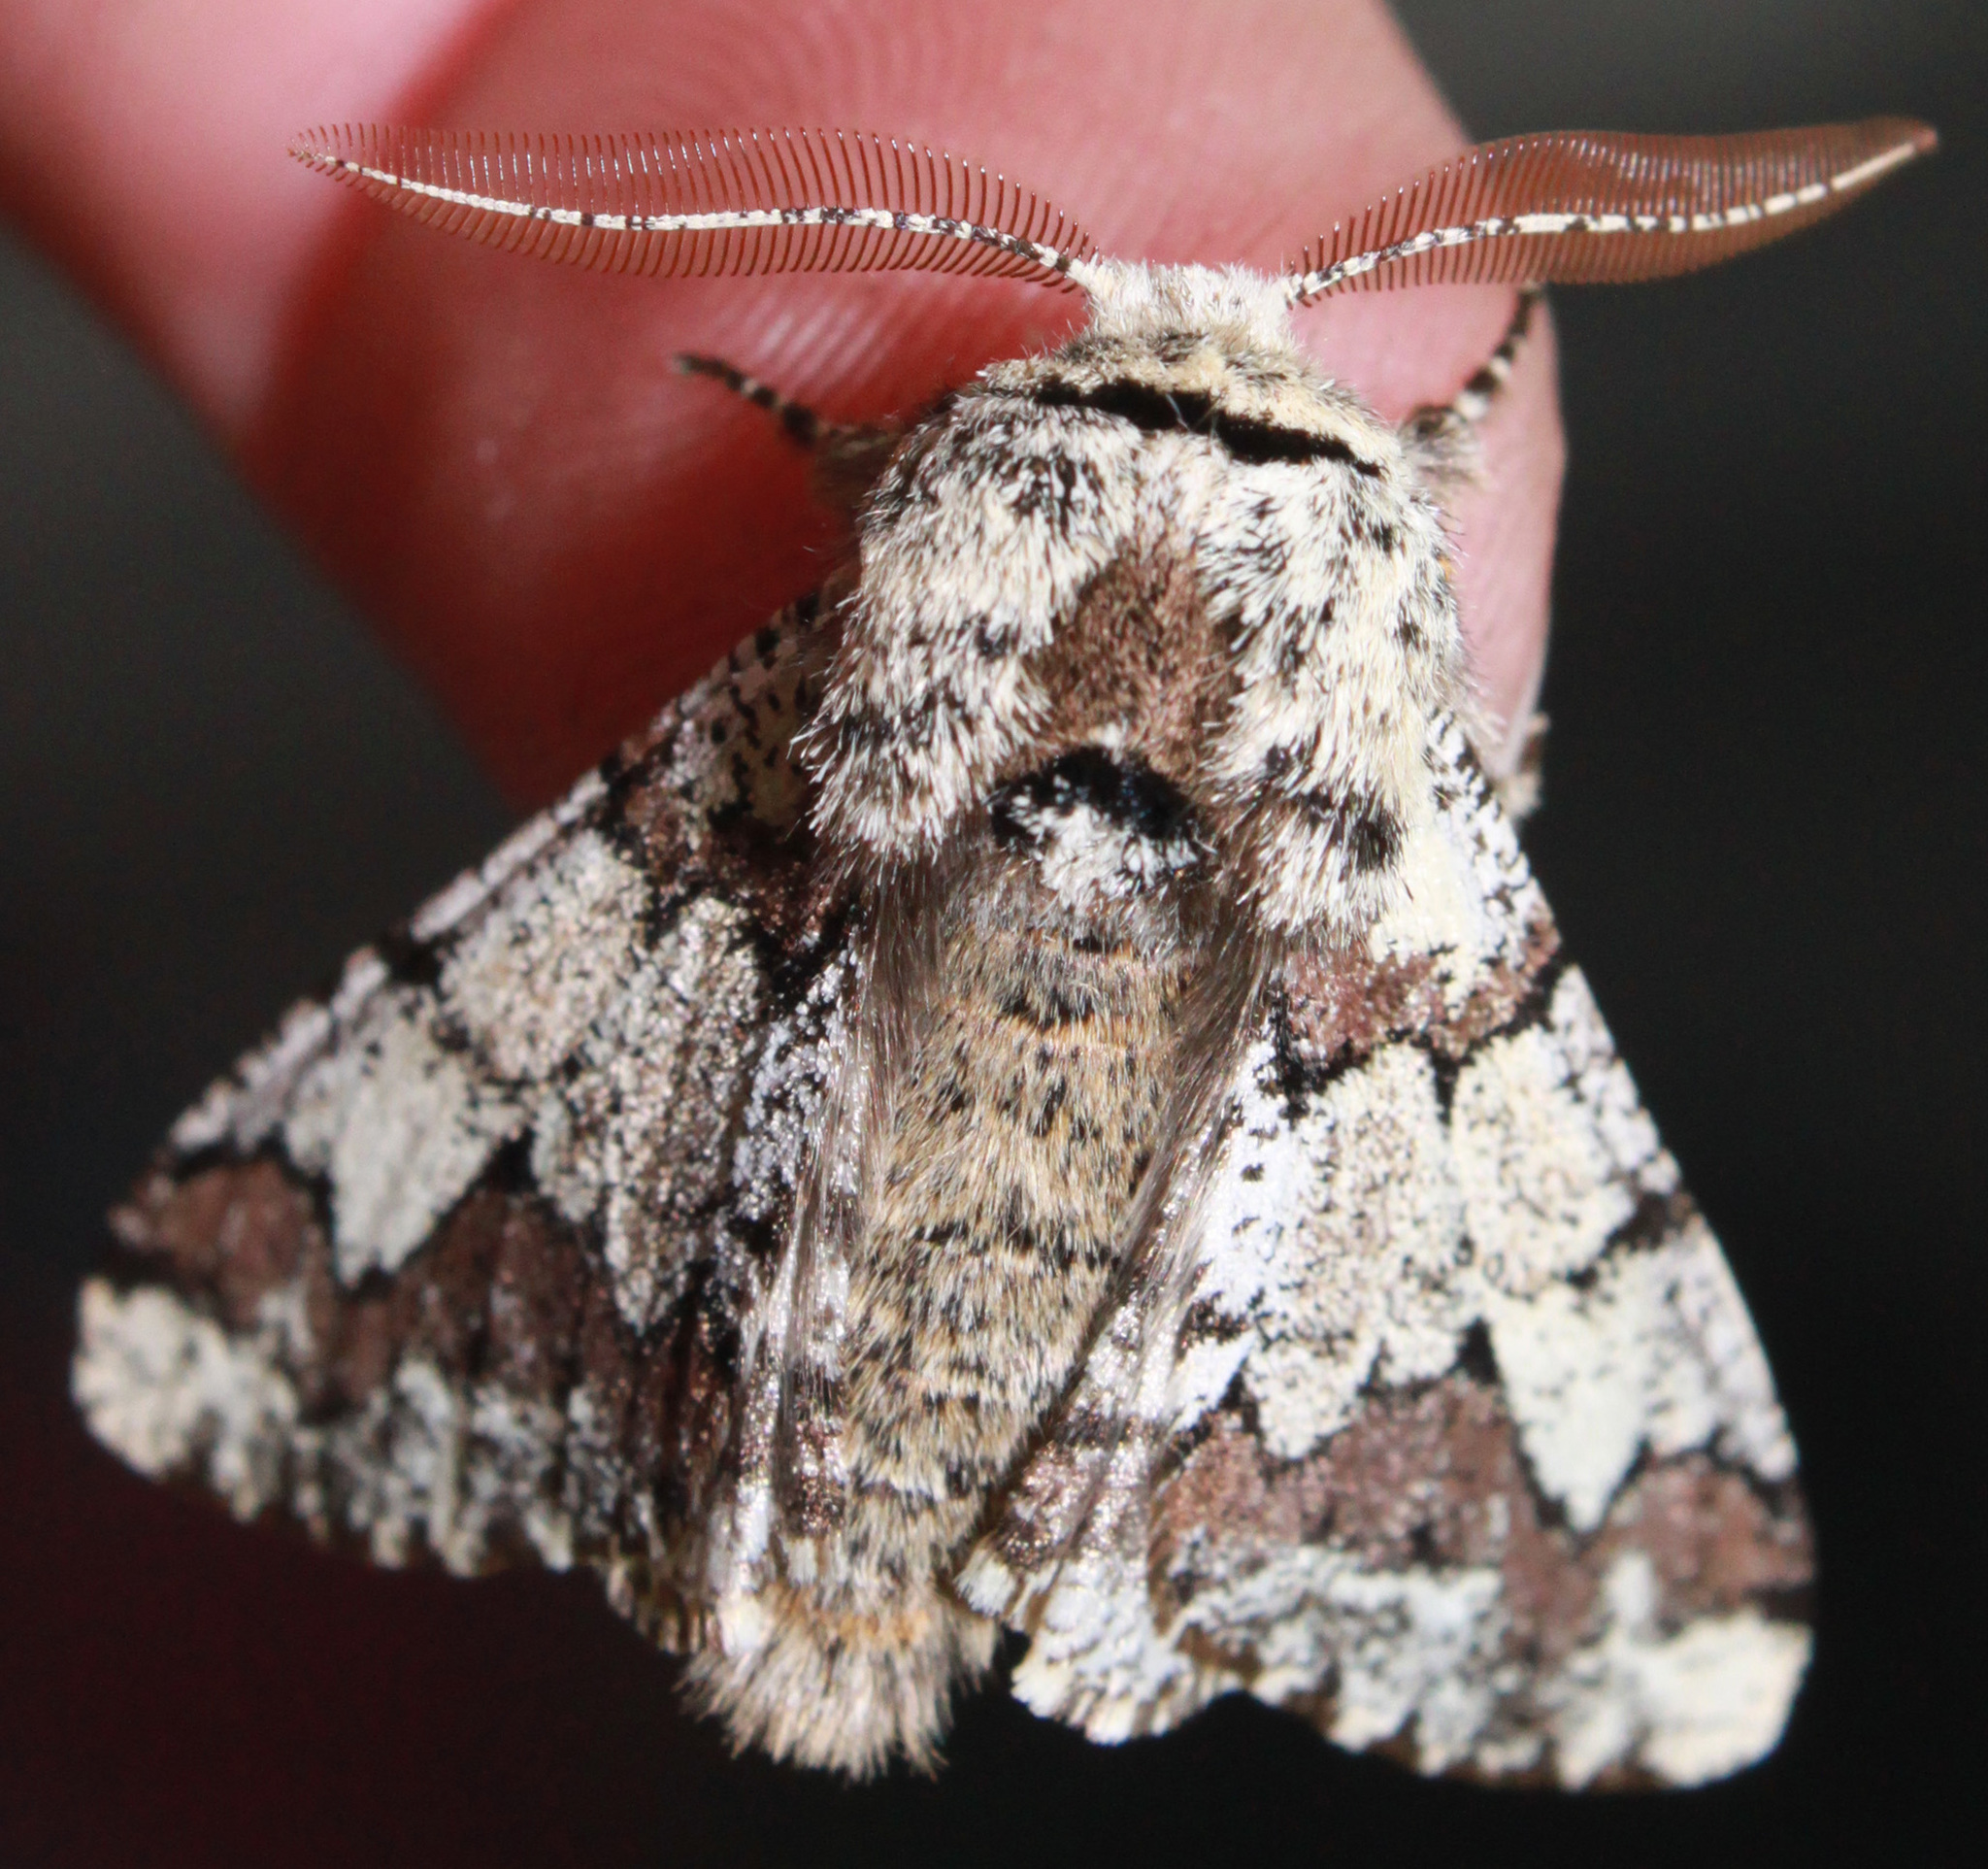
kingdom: Animalia
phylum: Arthropoda
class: Insecta
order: Lepidoptera
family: Geometridae
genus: Biston
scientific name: Biston strataria
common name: Oak beauty
